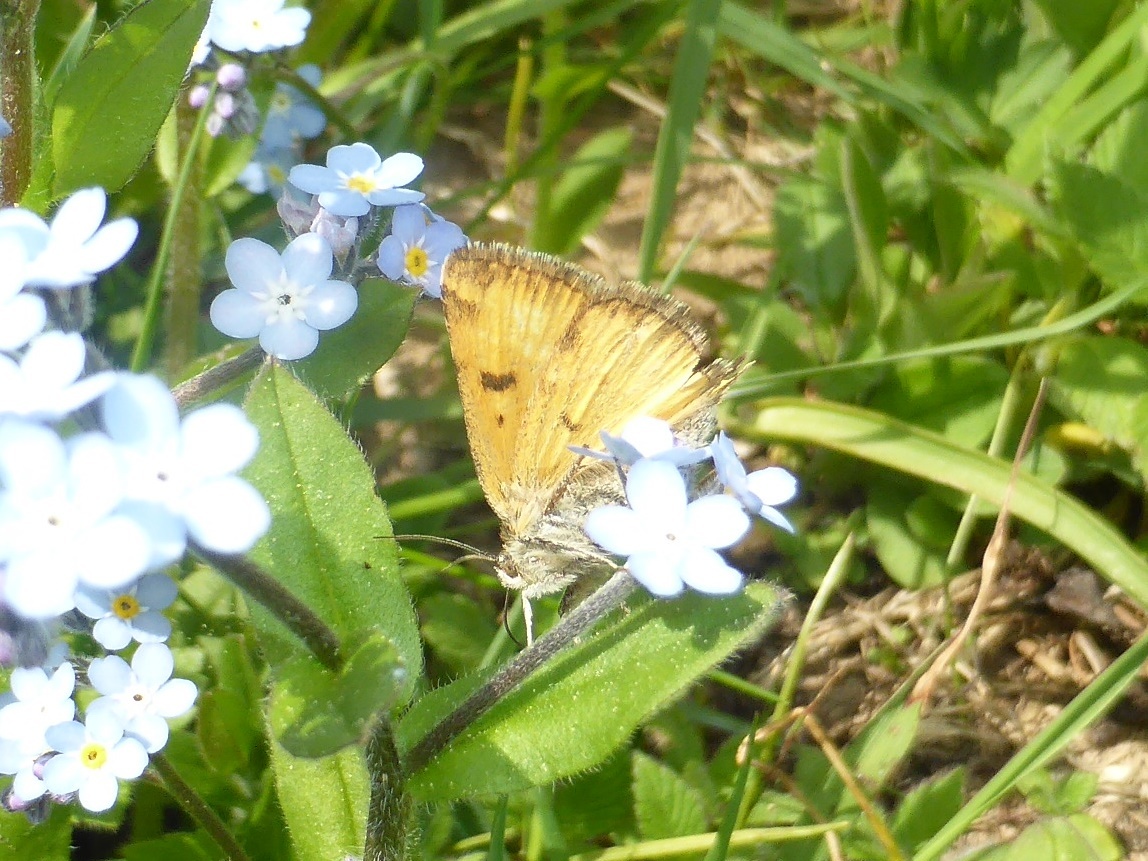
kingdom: Animalia
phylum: Arthropoda
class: Insecta
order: Lepidoptera
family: Erebidae
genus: Euclidia
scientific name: Euclidia glyphica
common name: Burnet companion
